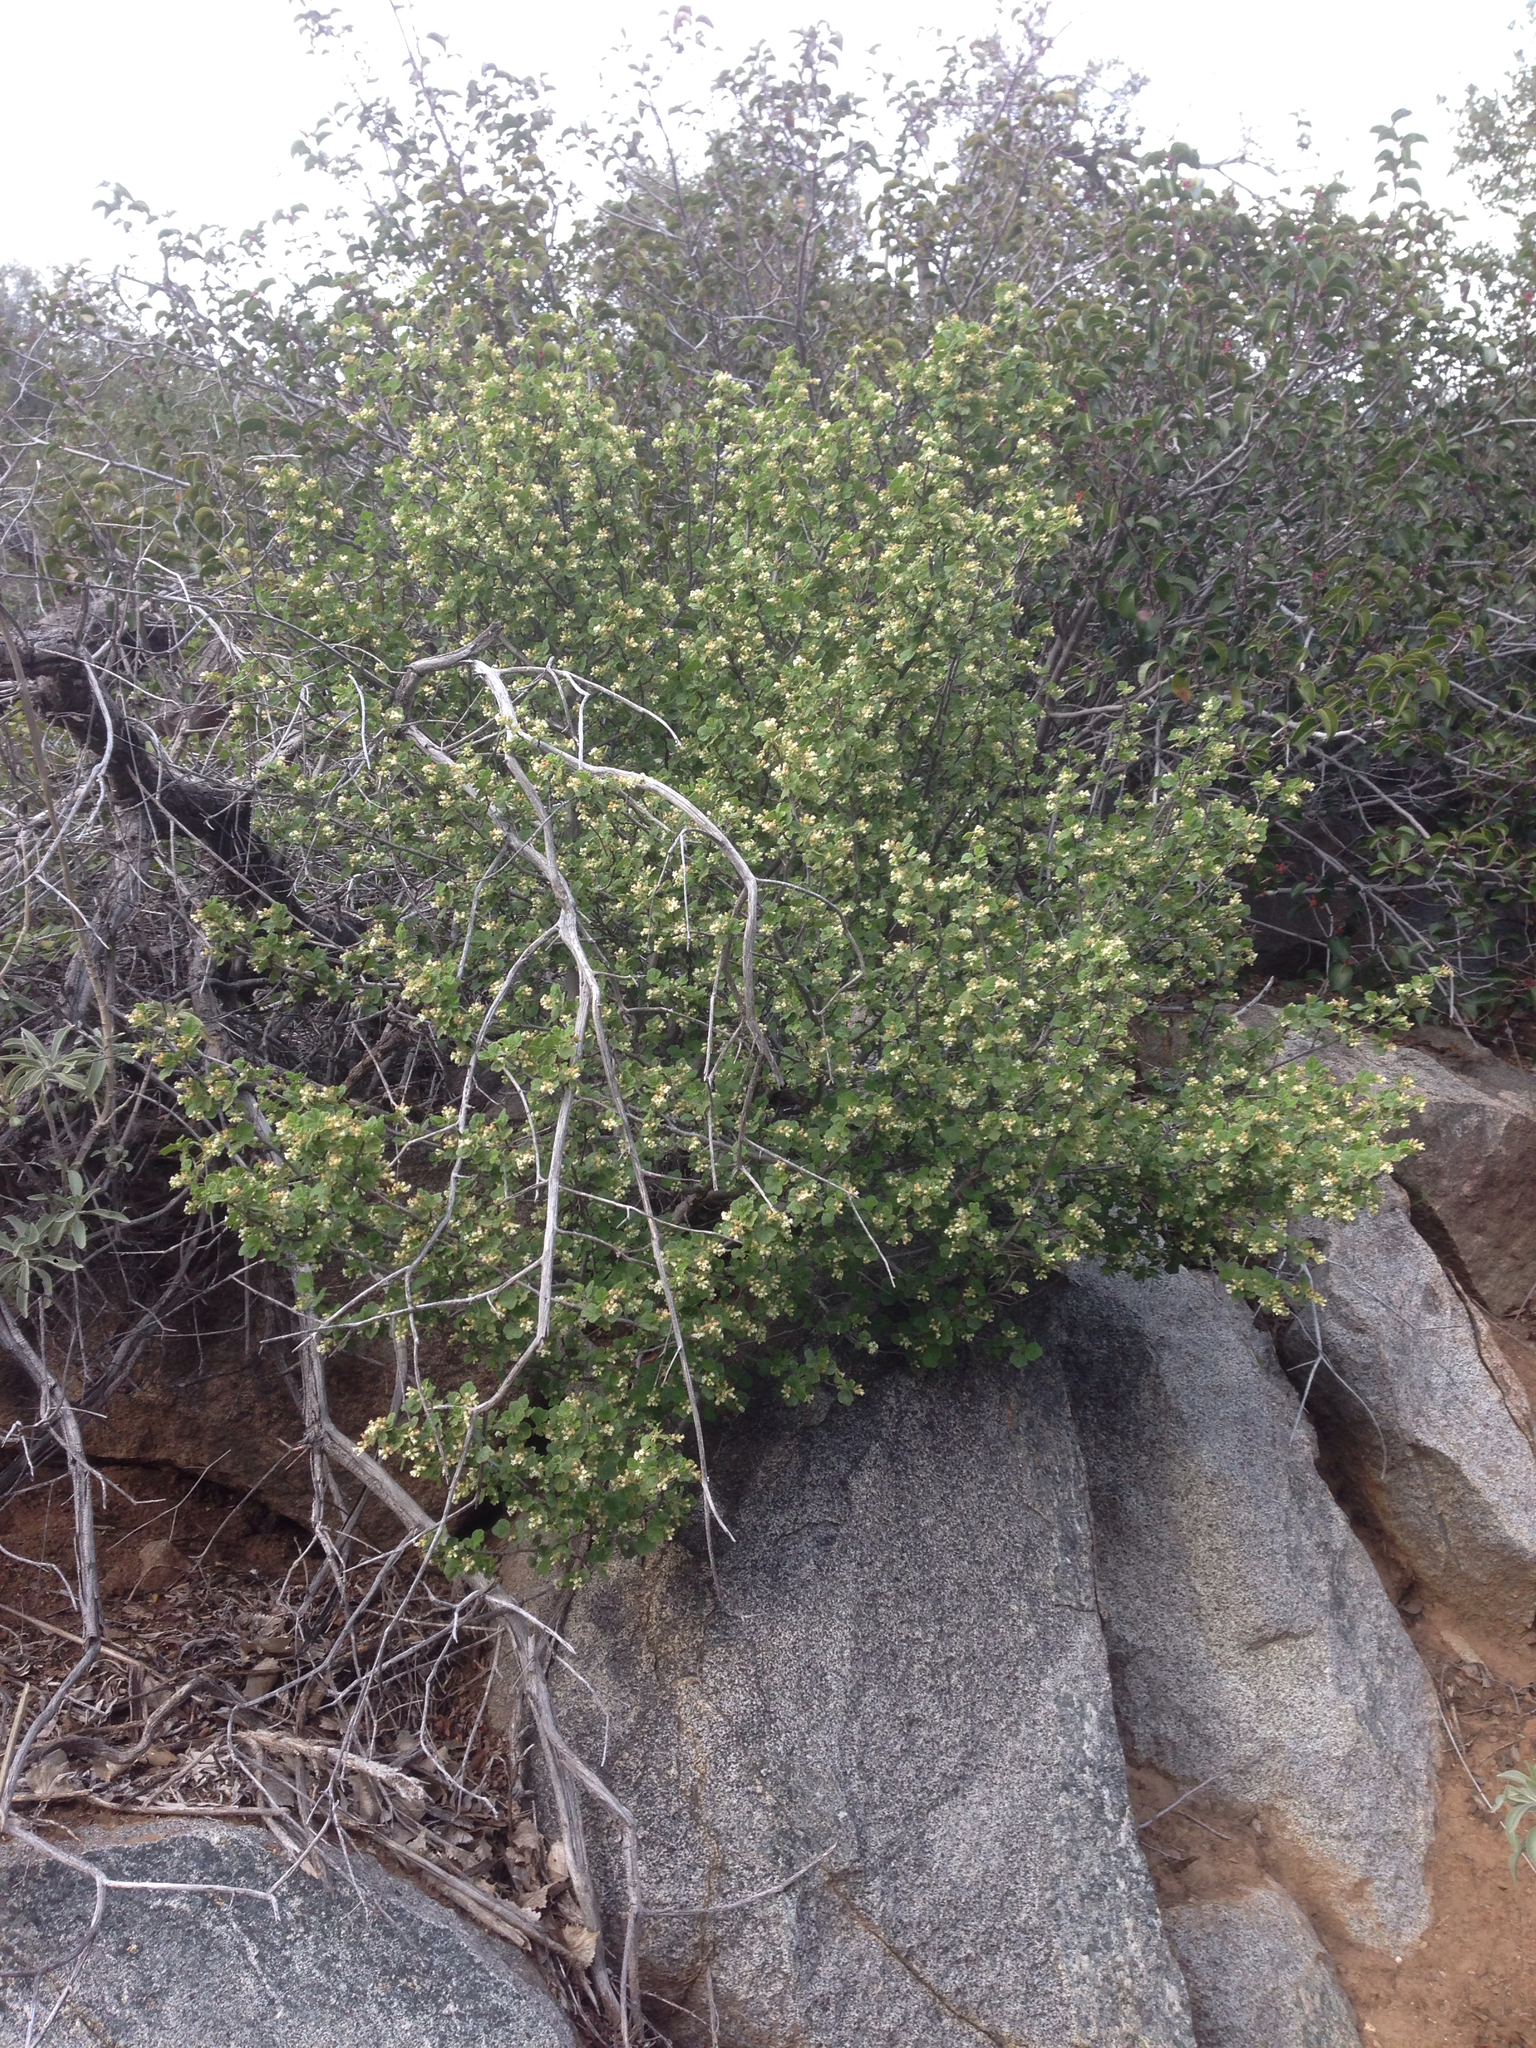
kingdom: Plantae
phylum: Tracheophyta
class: Magnoliopsida
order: Saxifragales
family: Grossulariaceae
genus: Ribes
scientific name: Ribes indecorum
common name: White-flower currant
